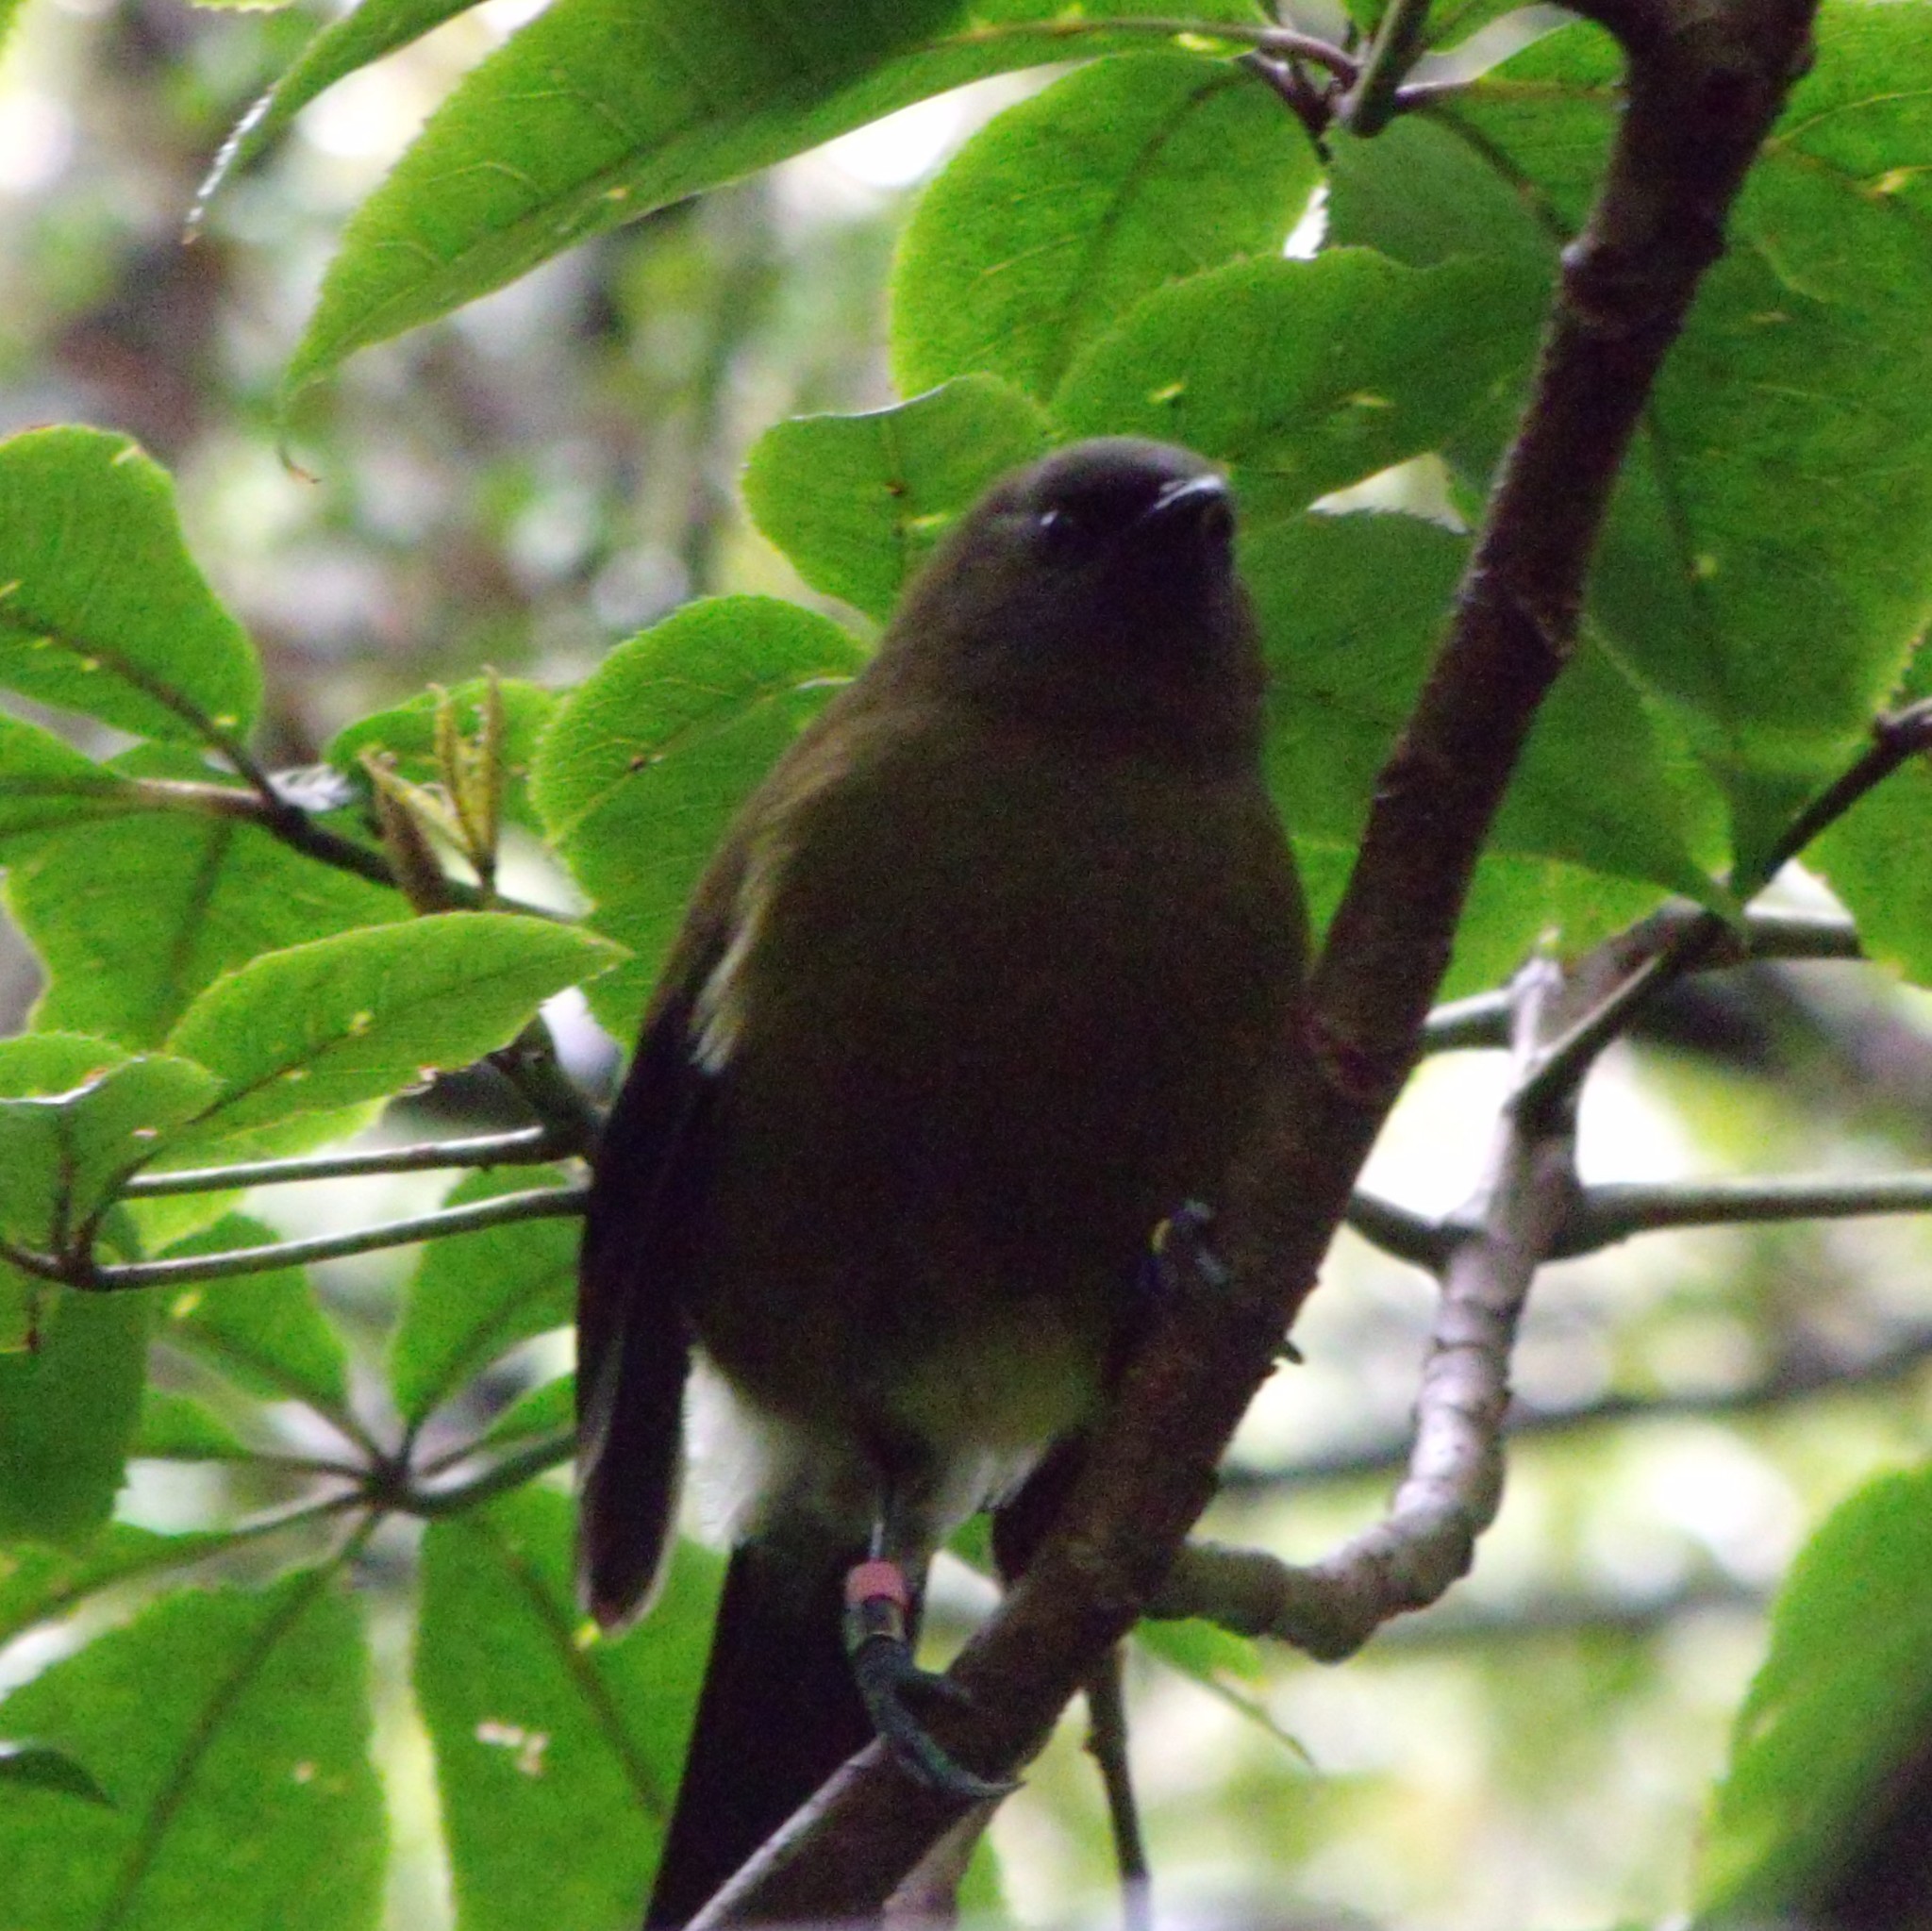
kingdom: Animalia
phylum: Chordata
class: Aves
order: Passeriformes
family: Meliphagidae
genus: Anthornis
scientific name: Anthornis melanura
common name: New zealand bellbird
